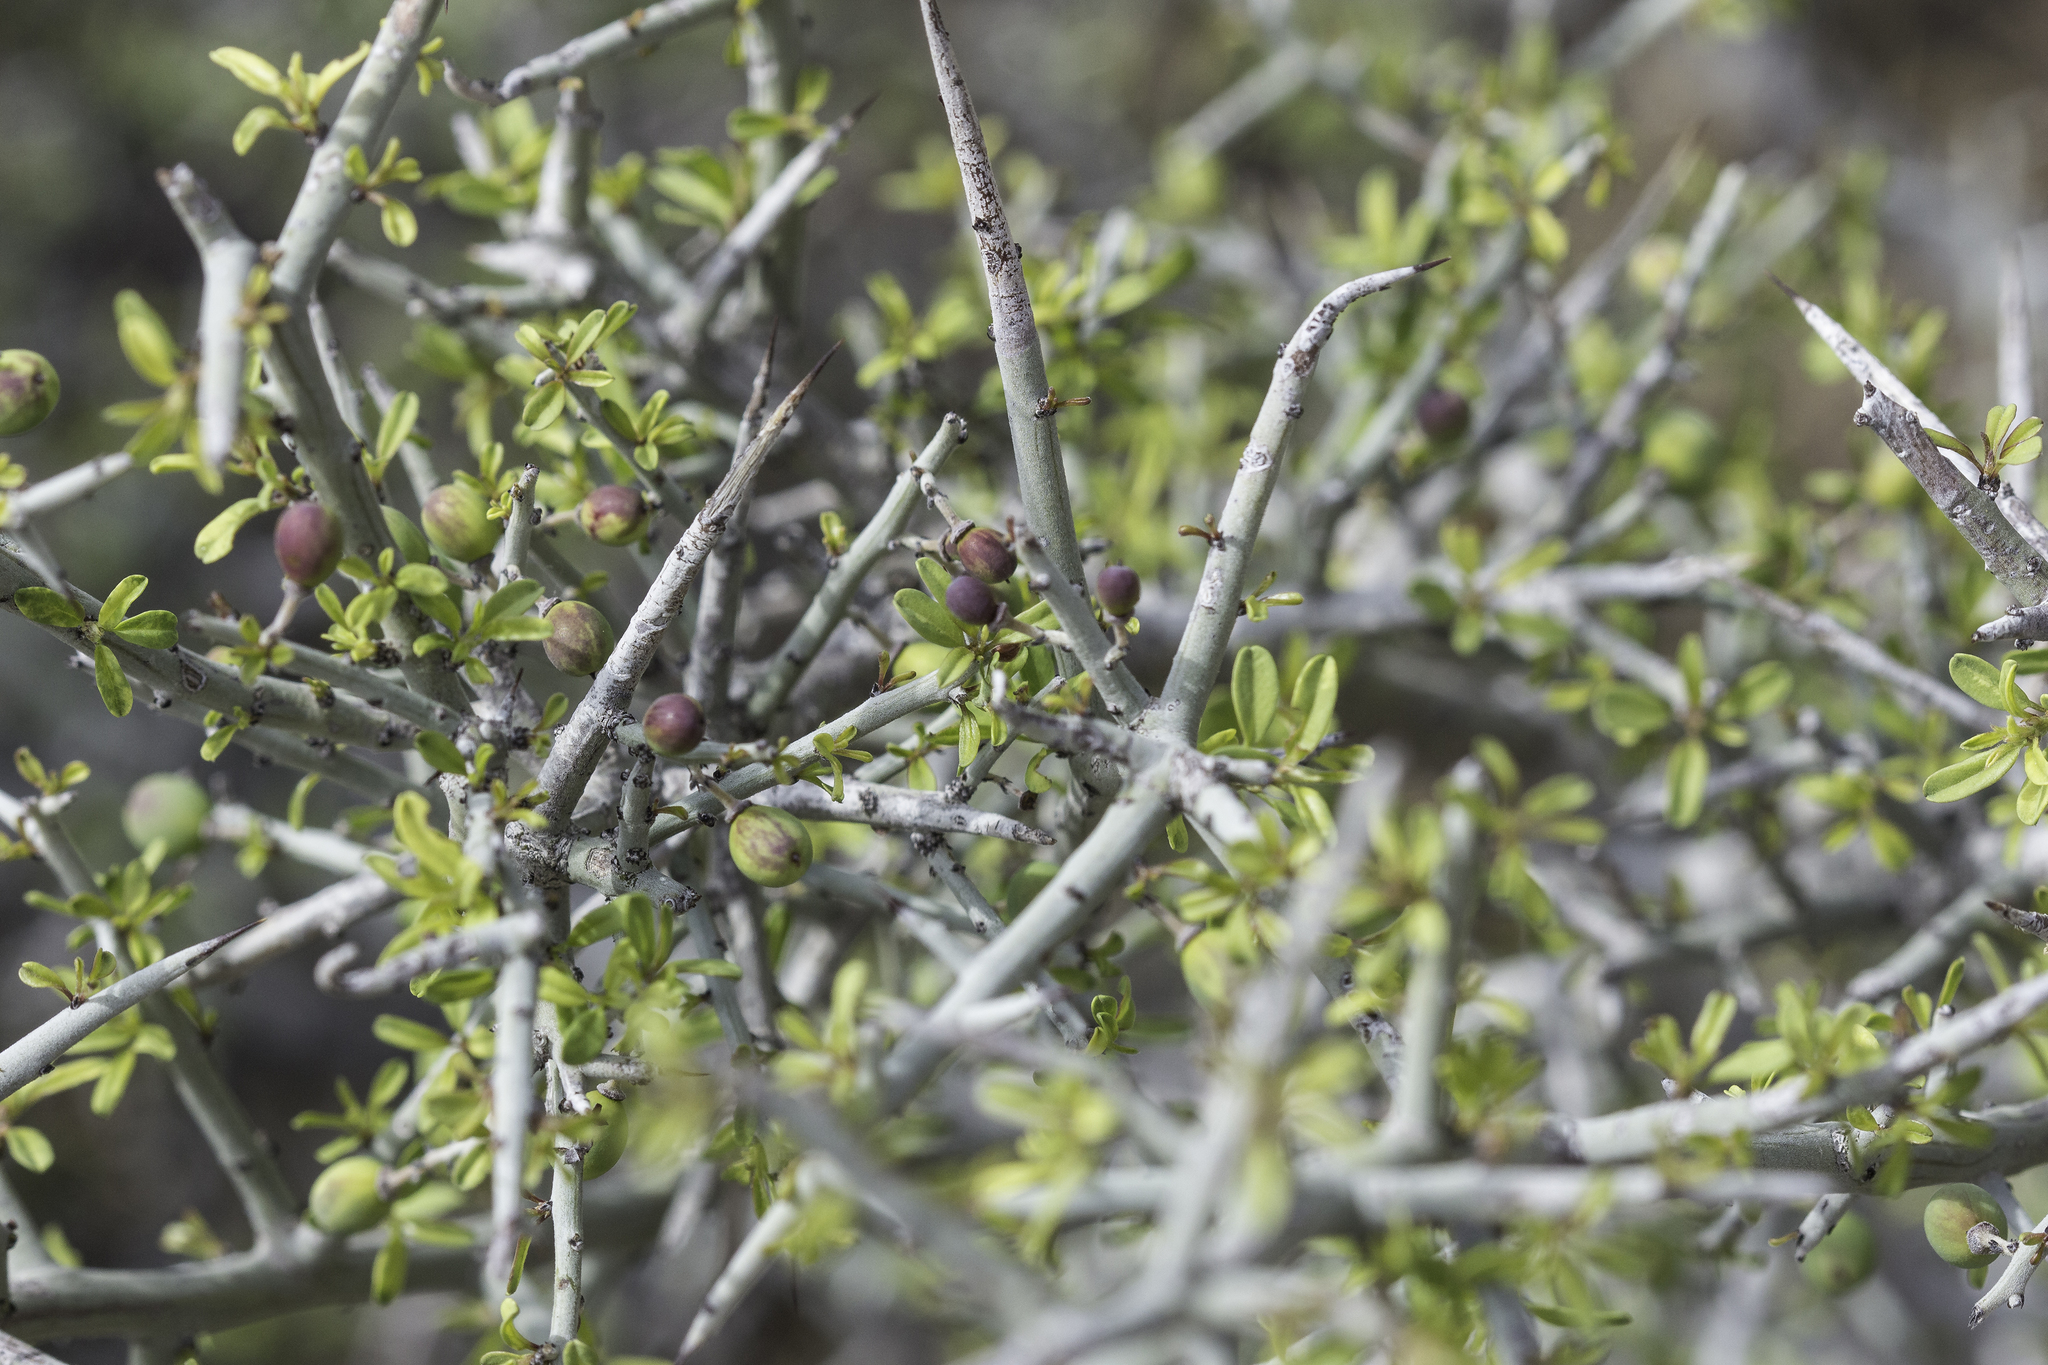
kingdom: Plantae
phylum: Tracheophyta
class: Magnoliopsida
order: Rosales
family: Rhamnaceae
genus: Sarcomphalus
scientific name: Sarcomphalus obtusifolius
